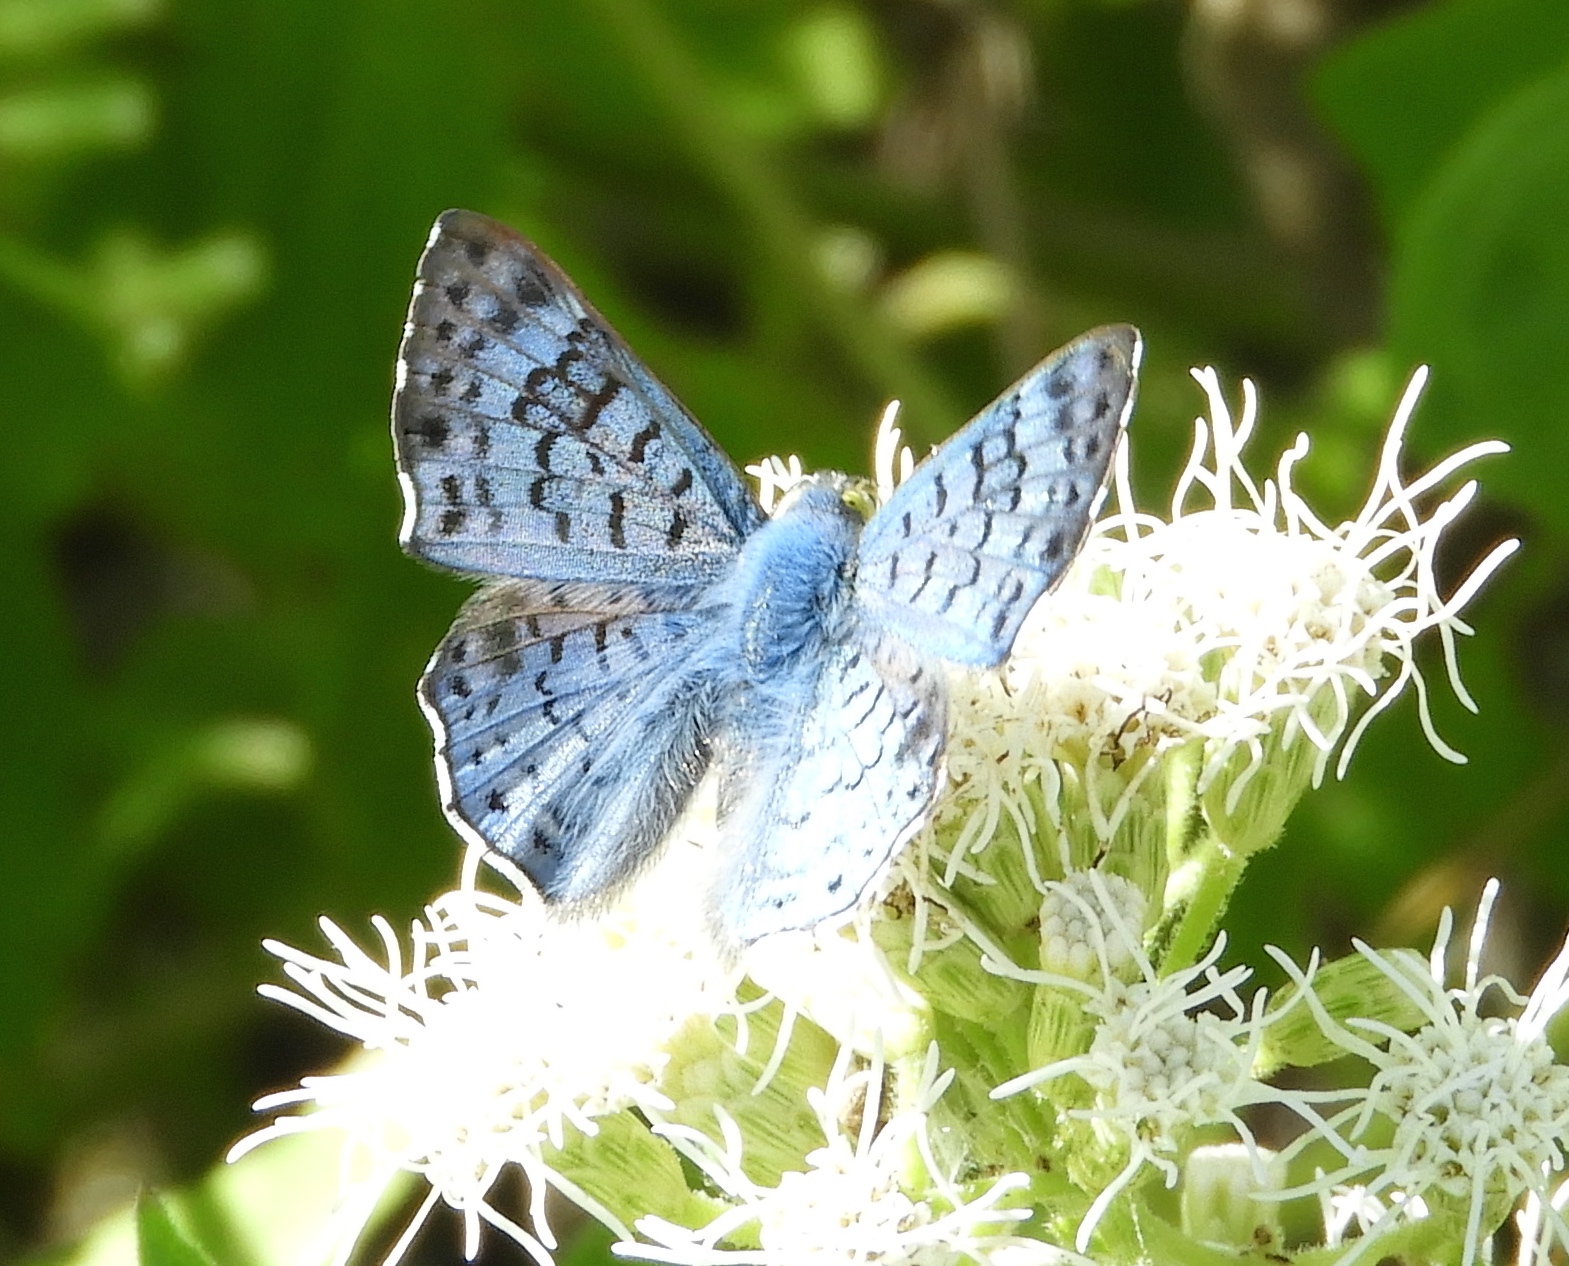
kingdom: Animalia
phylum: Arthropoda
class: Insecta
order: Diptera
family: Acroceridae
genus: Lasia
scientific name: Lasia
